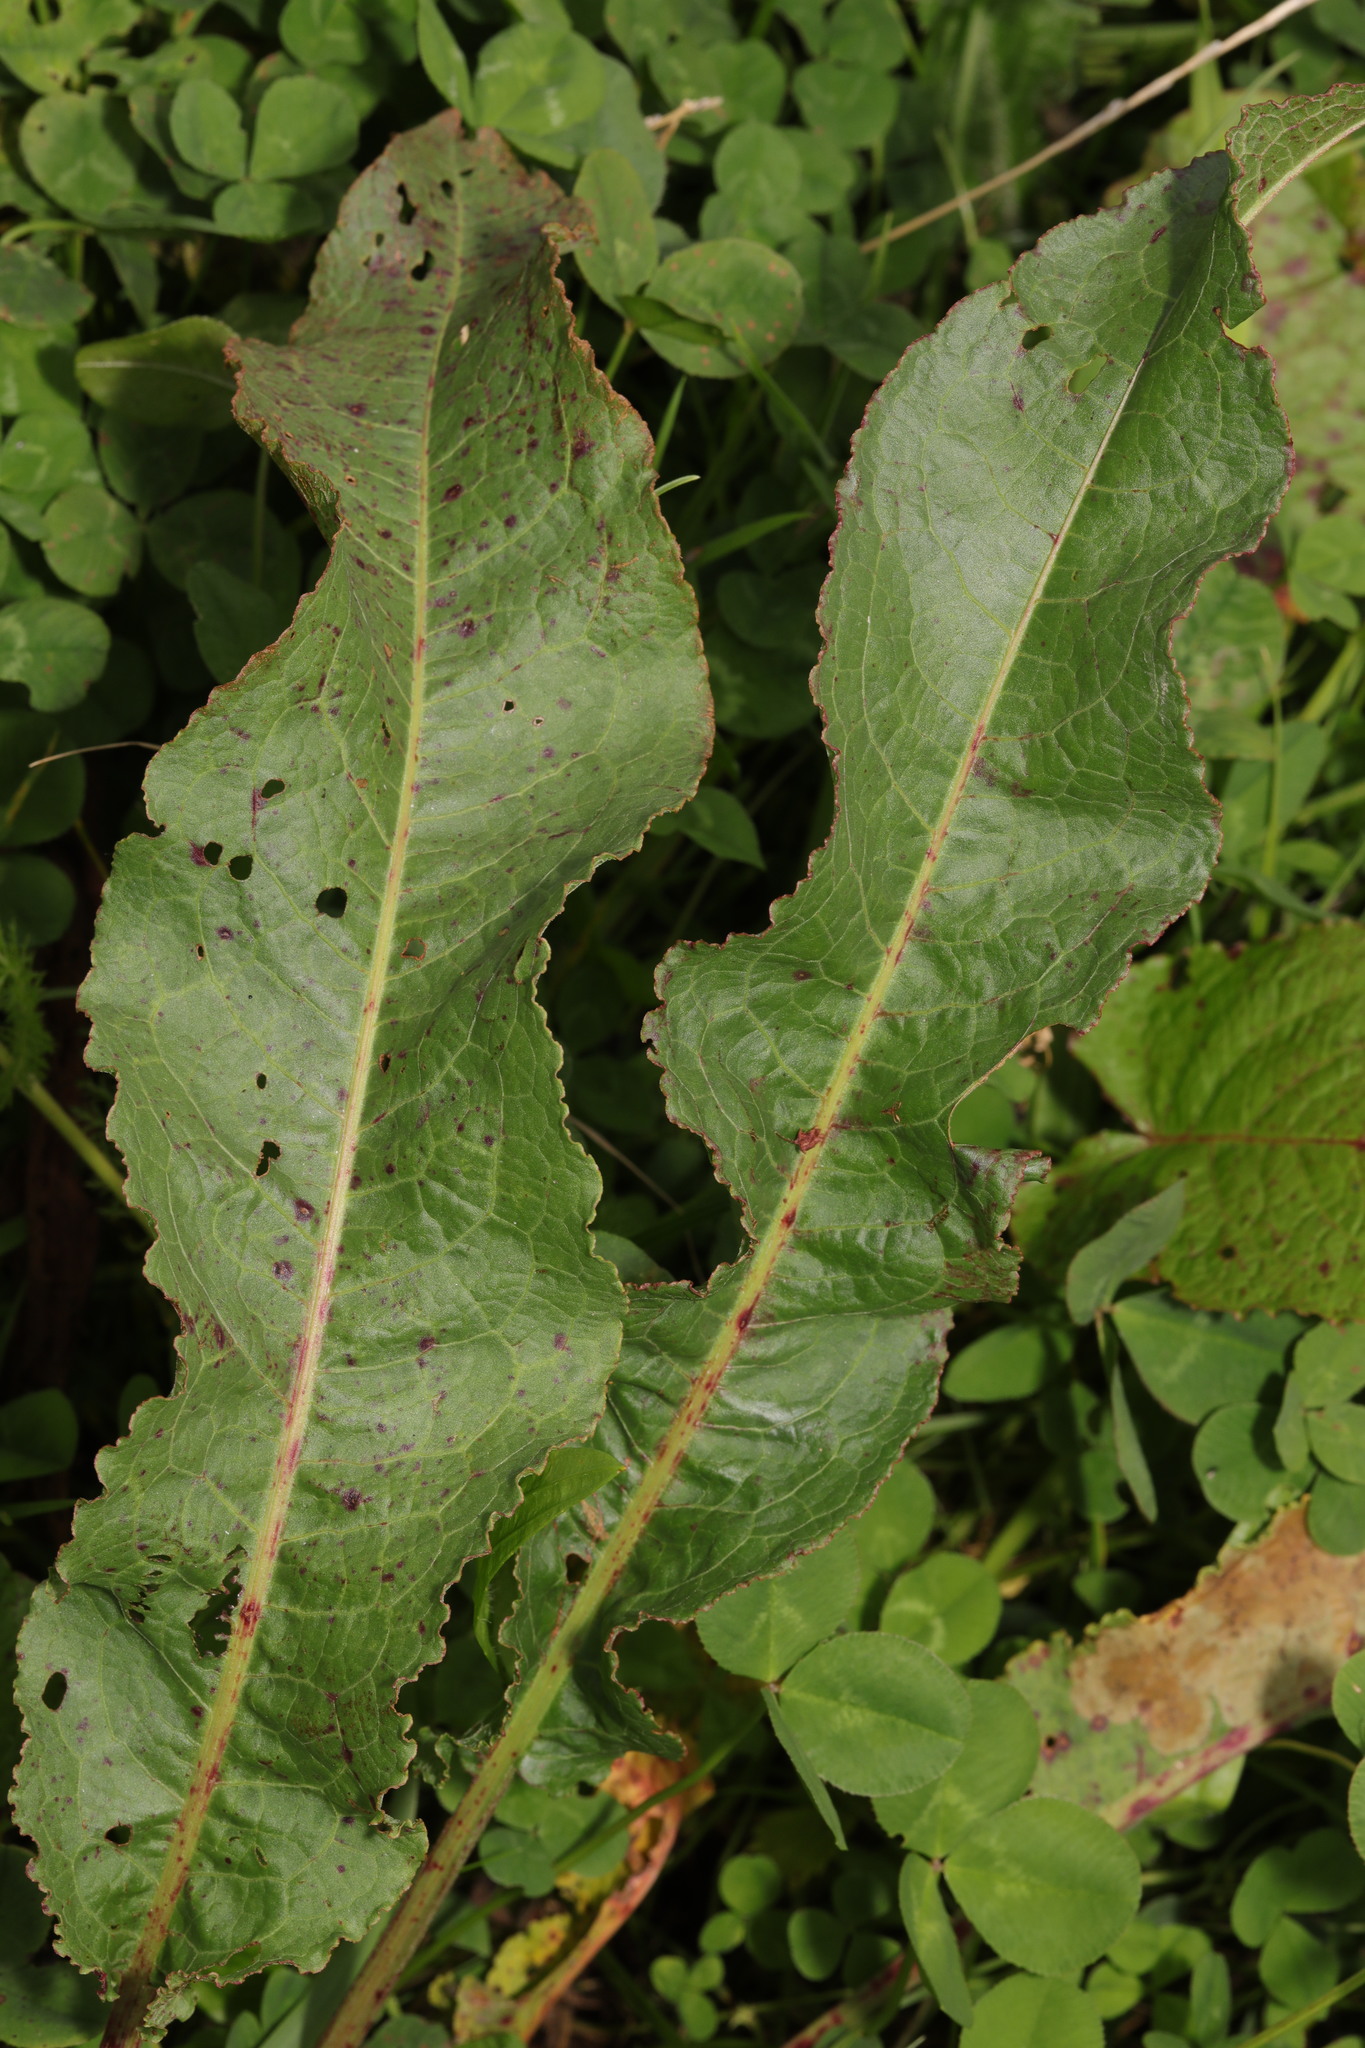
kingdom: Plantae
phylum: Tracheophyta
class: Magnoliopsida
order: Caryophyllales
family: Polygonaceae
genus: Rumex
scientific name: Rumex crispus
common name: Curled dock
